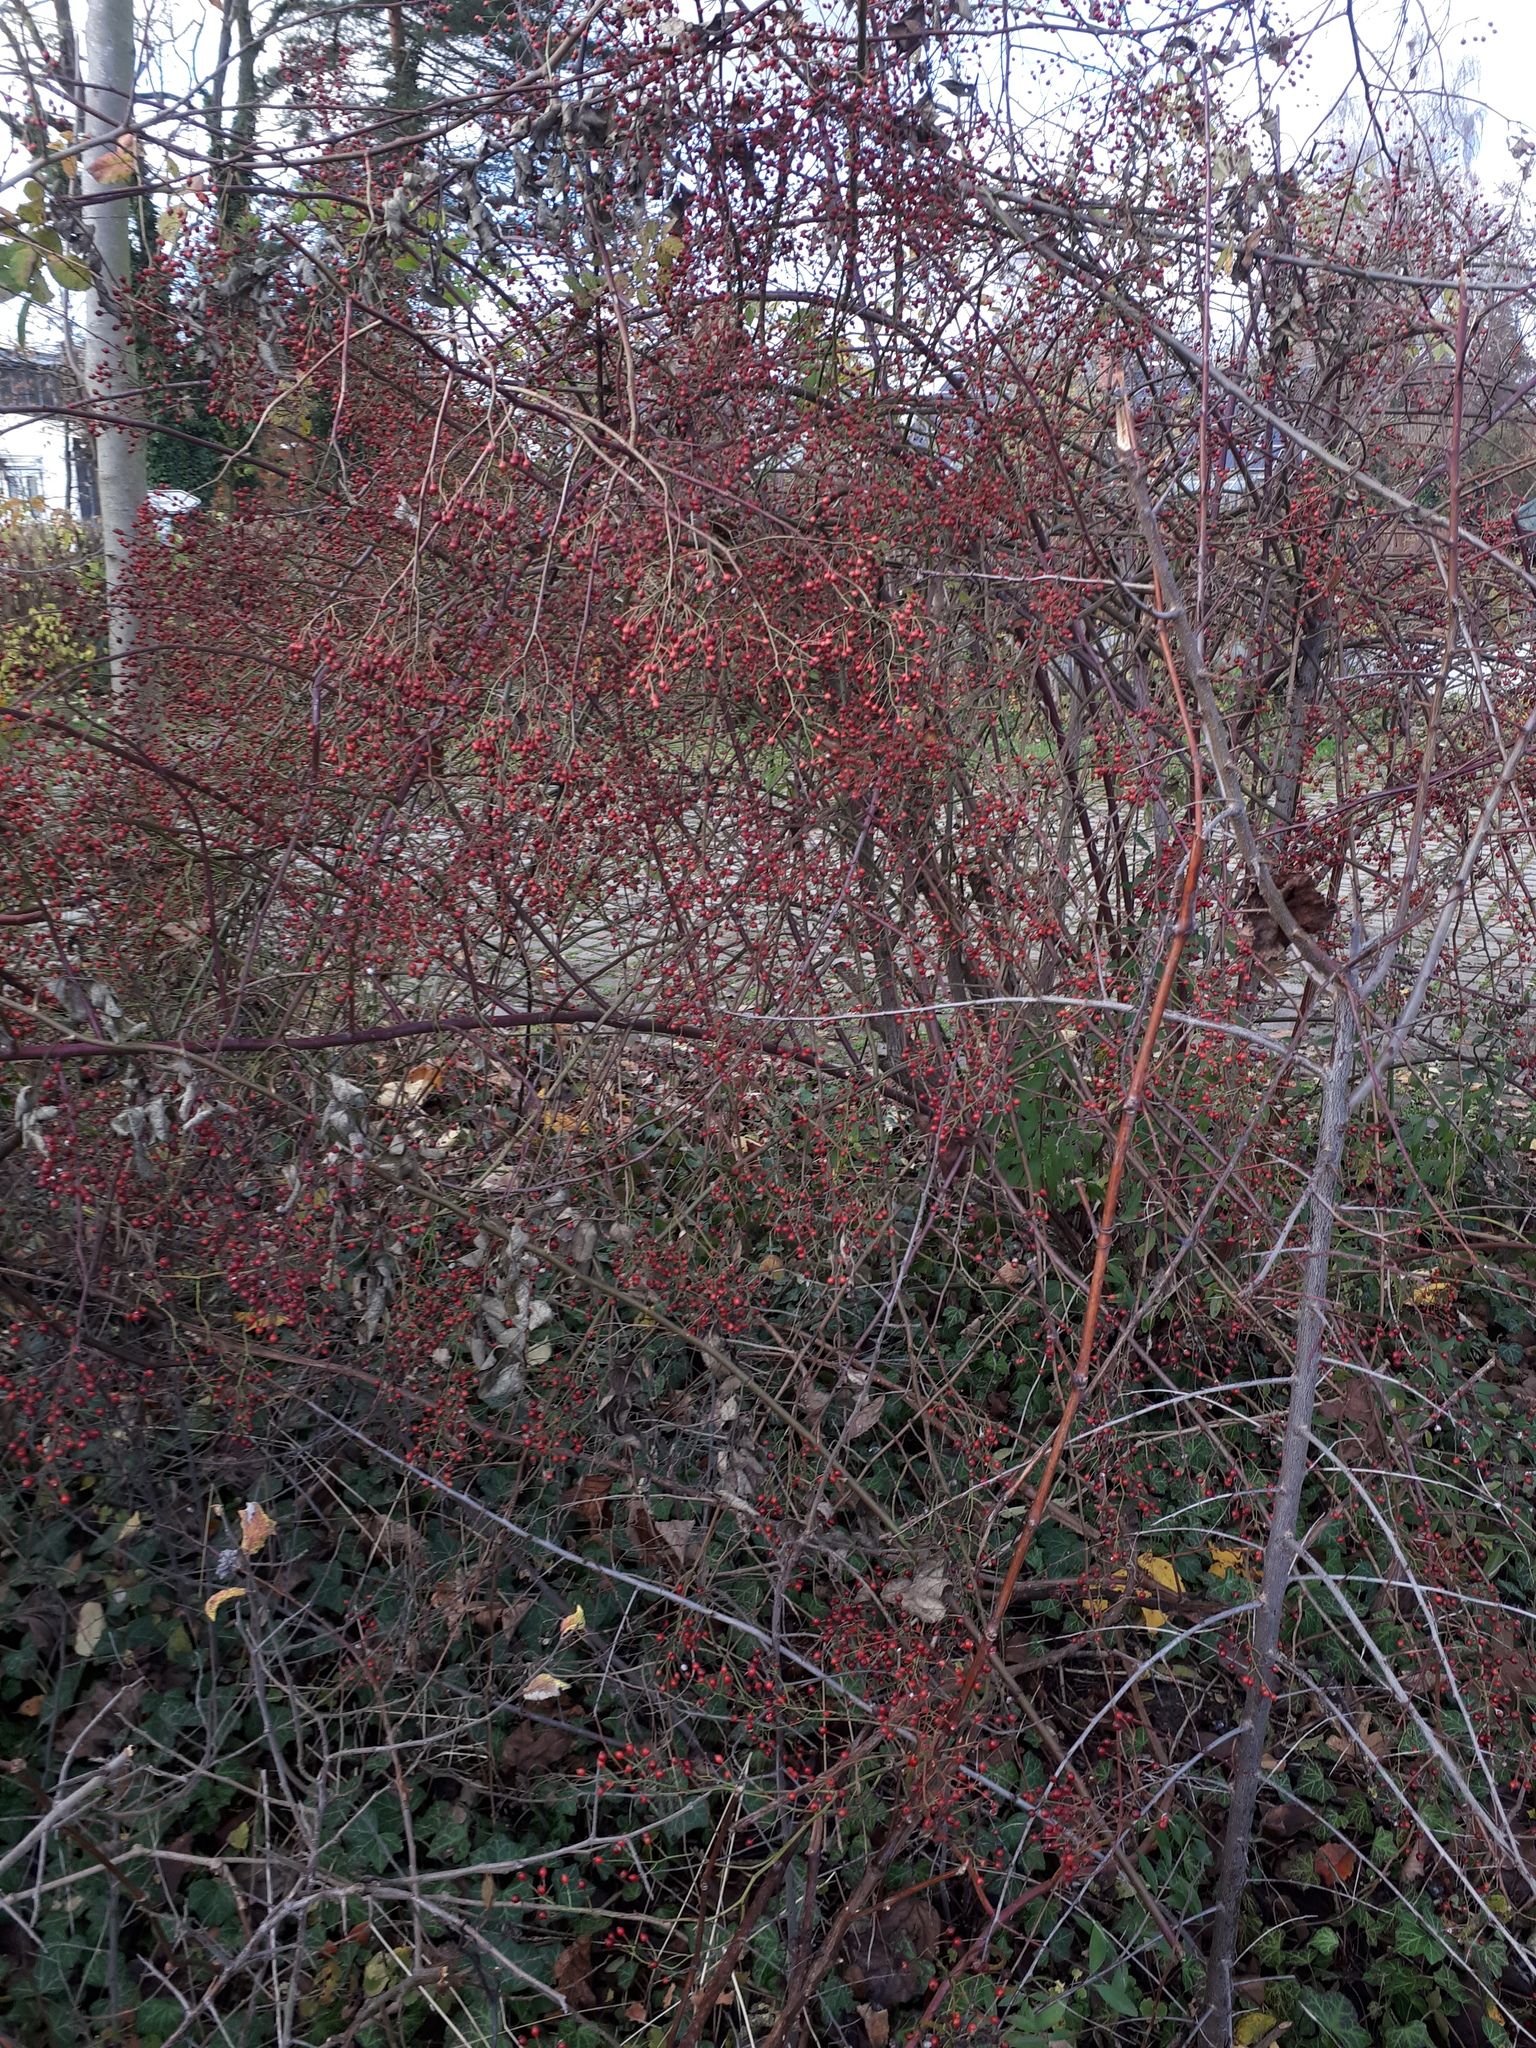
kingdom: Plantae
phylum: Tracheophyta
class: Magnoliopsida
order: Rosales
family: Rosaceae
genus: Rosa
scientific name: Rosa multiflora
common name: Multiflora rose
